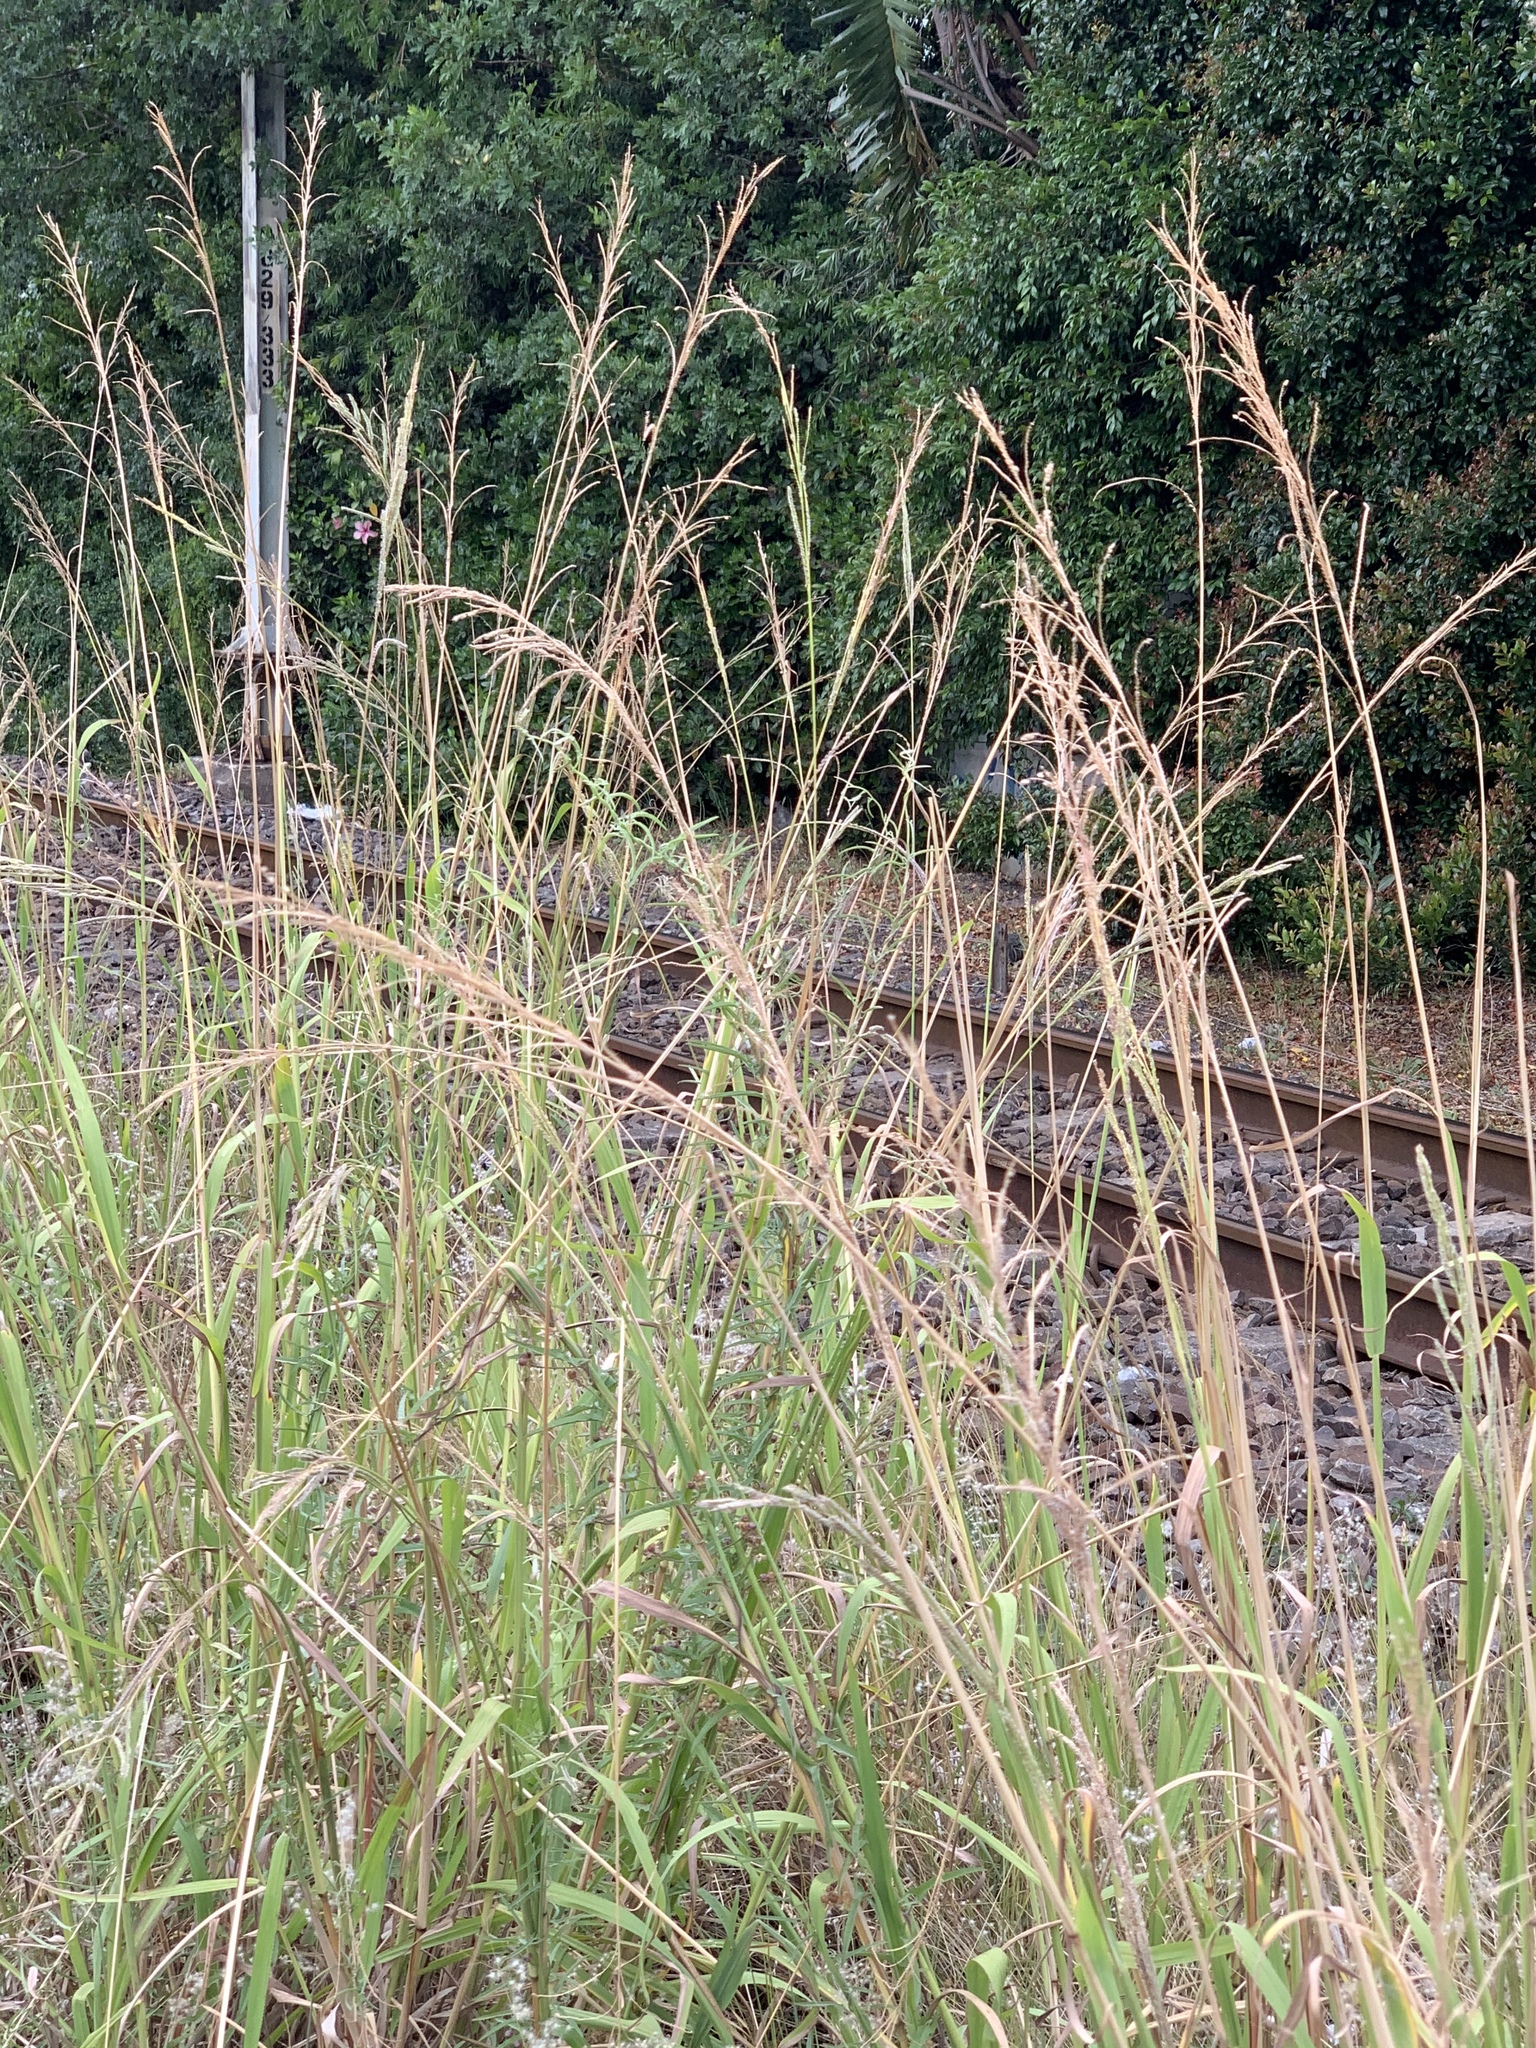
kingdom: Plantae
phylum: Tracheophyta
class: Liliopsida
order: Poales
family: Poaceae
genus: Paspalum
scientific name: Paspalum urvillei
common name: Vasey's grass
